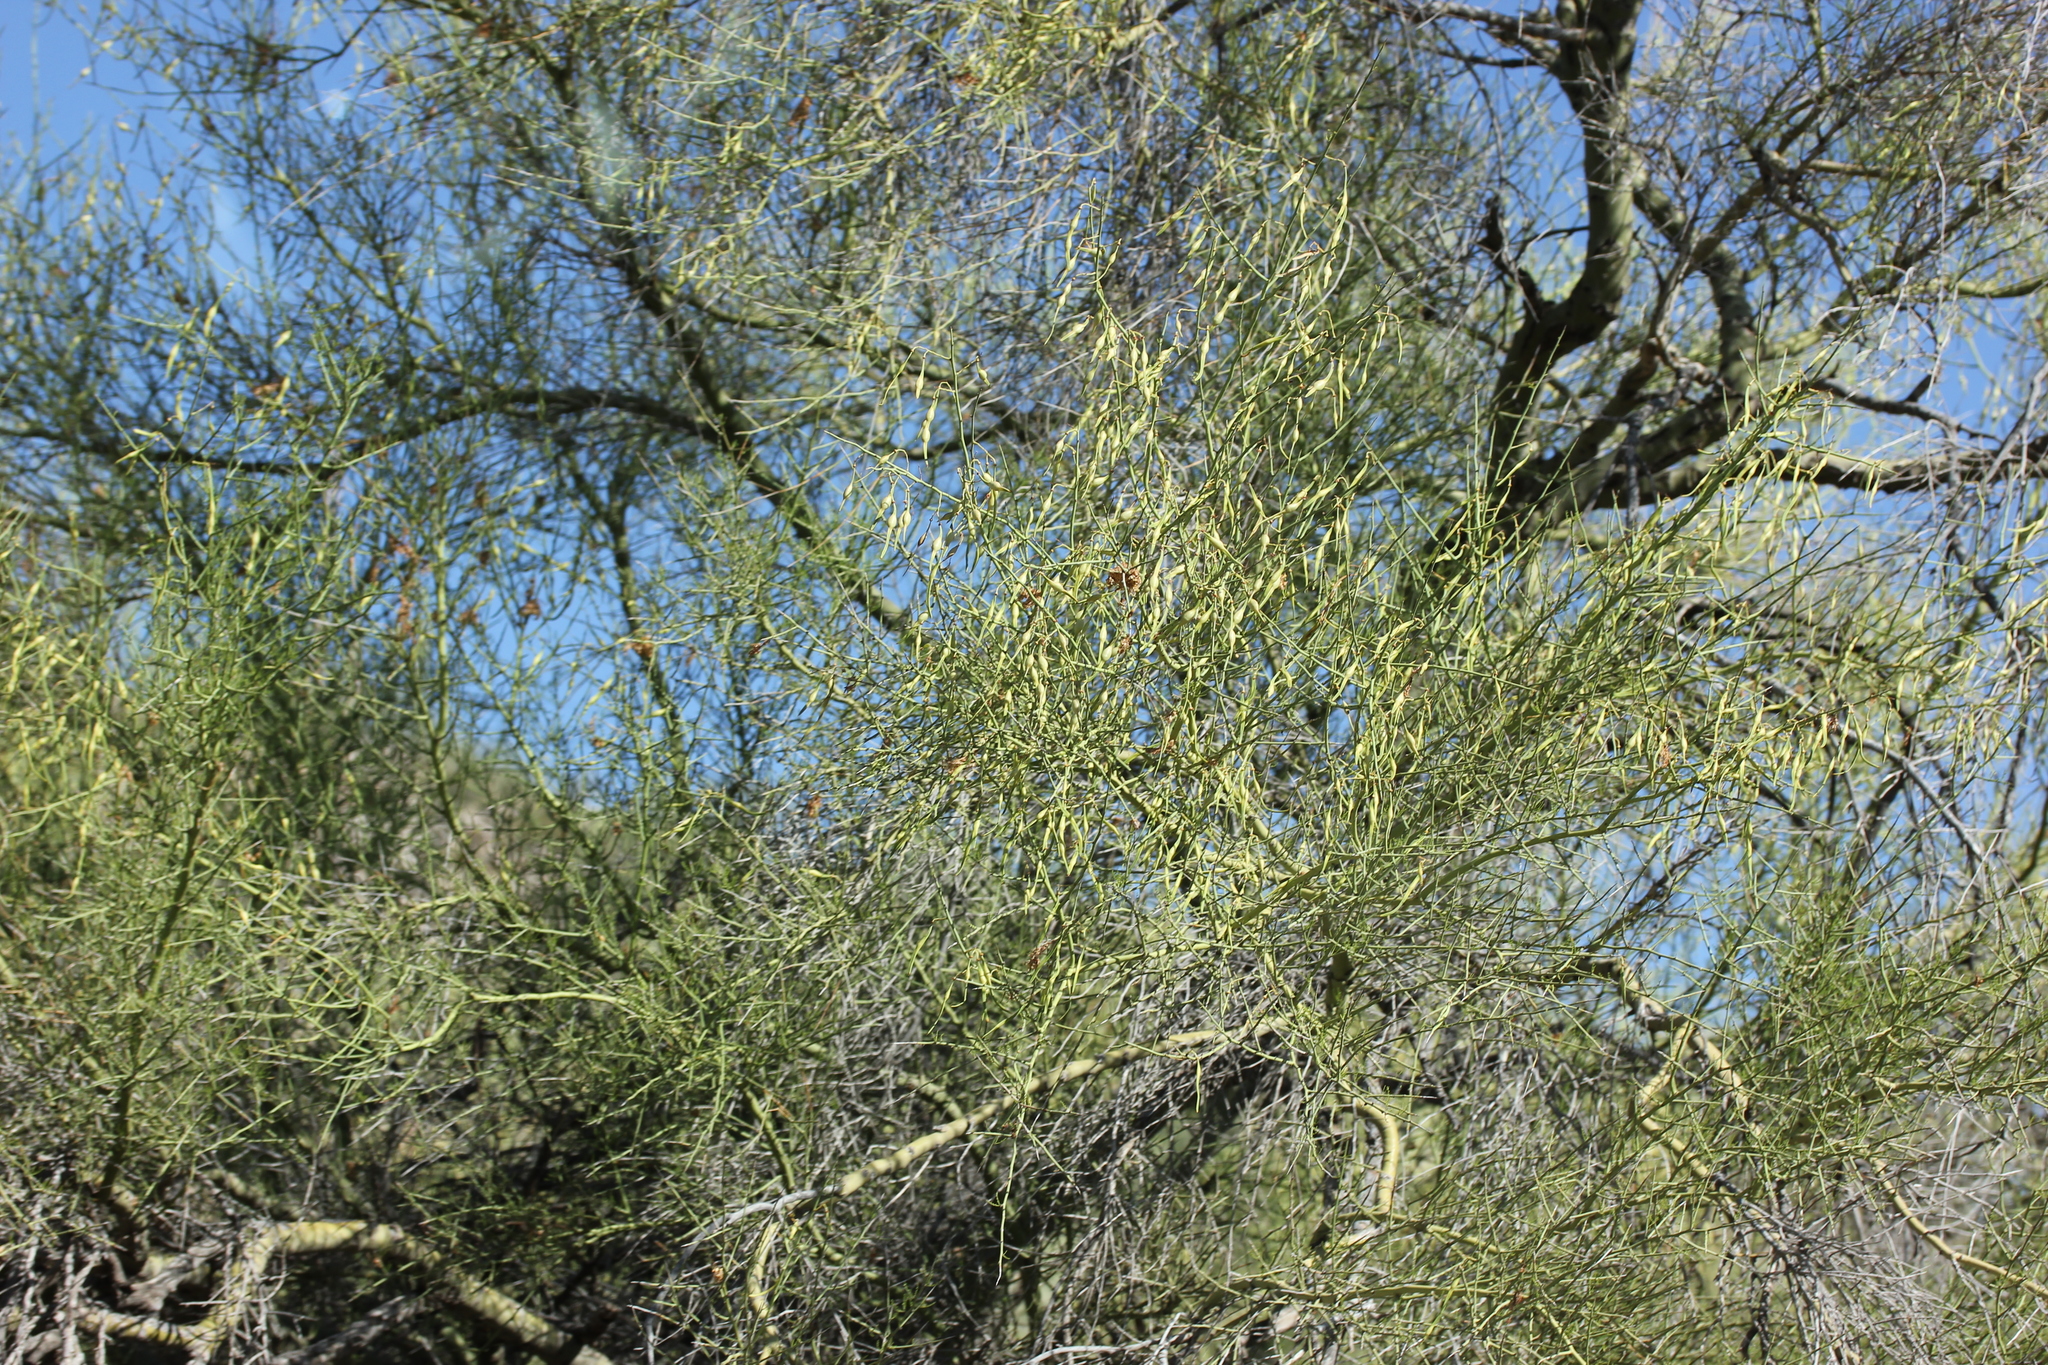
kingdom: Plantae
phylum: Tracheophyta
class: Magnoliopsida
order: Fabales
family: Fabaceae
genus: Parkinsonia
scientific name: Parkinsonia microphylla
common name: Yellow paloverde
